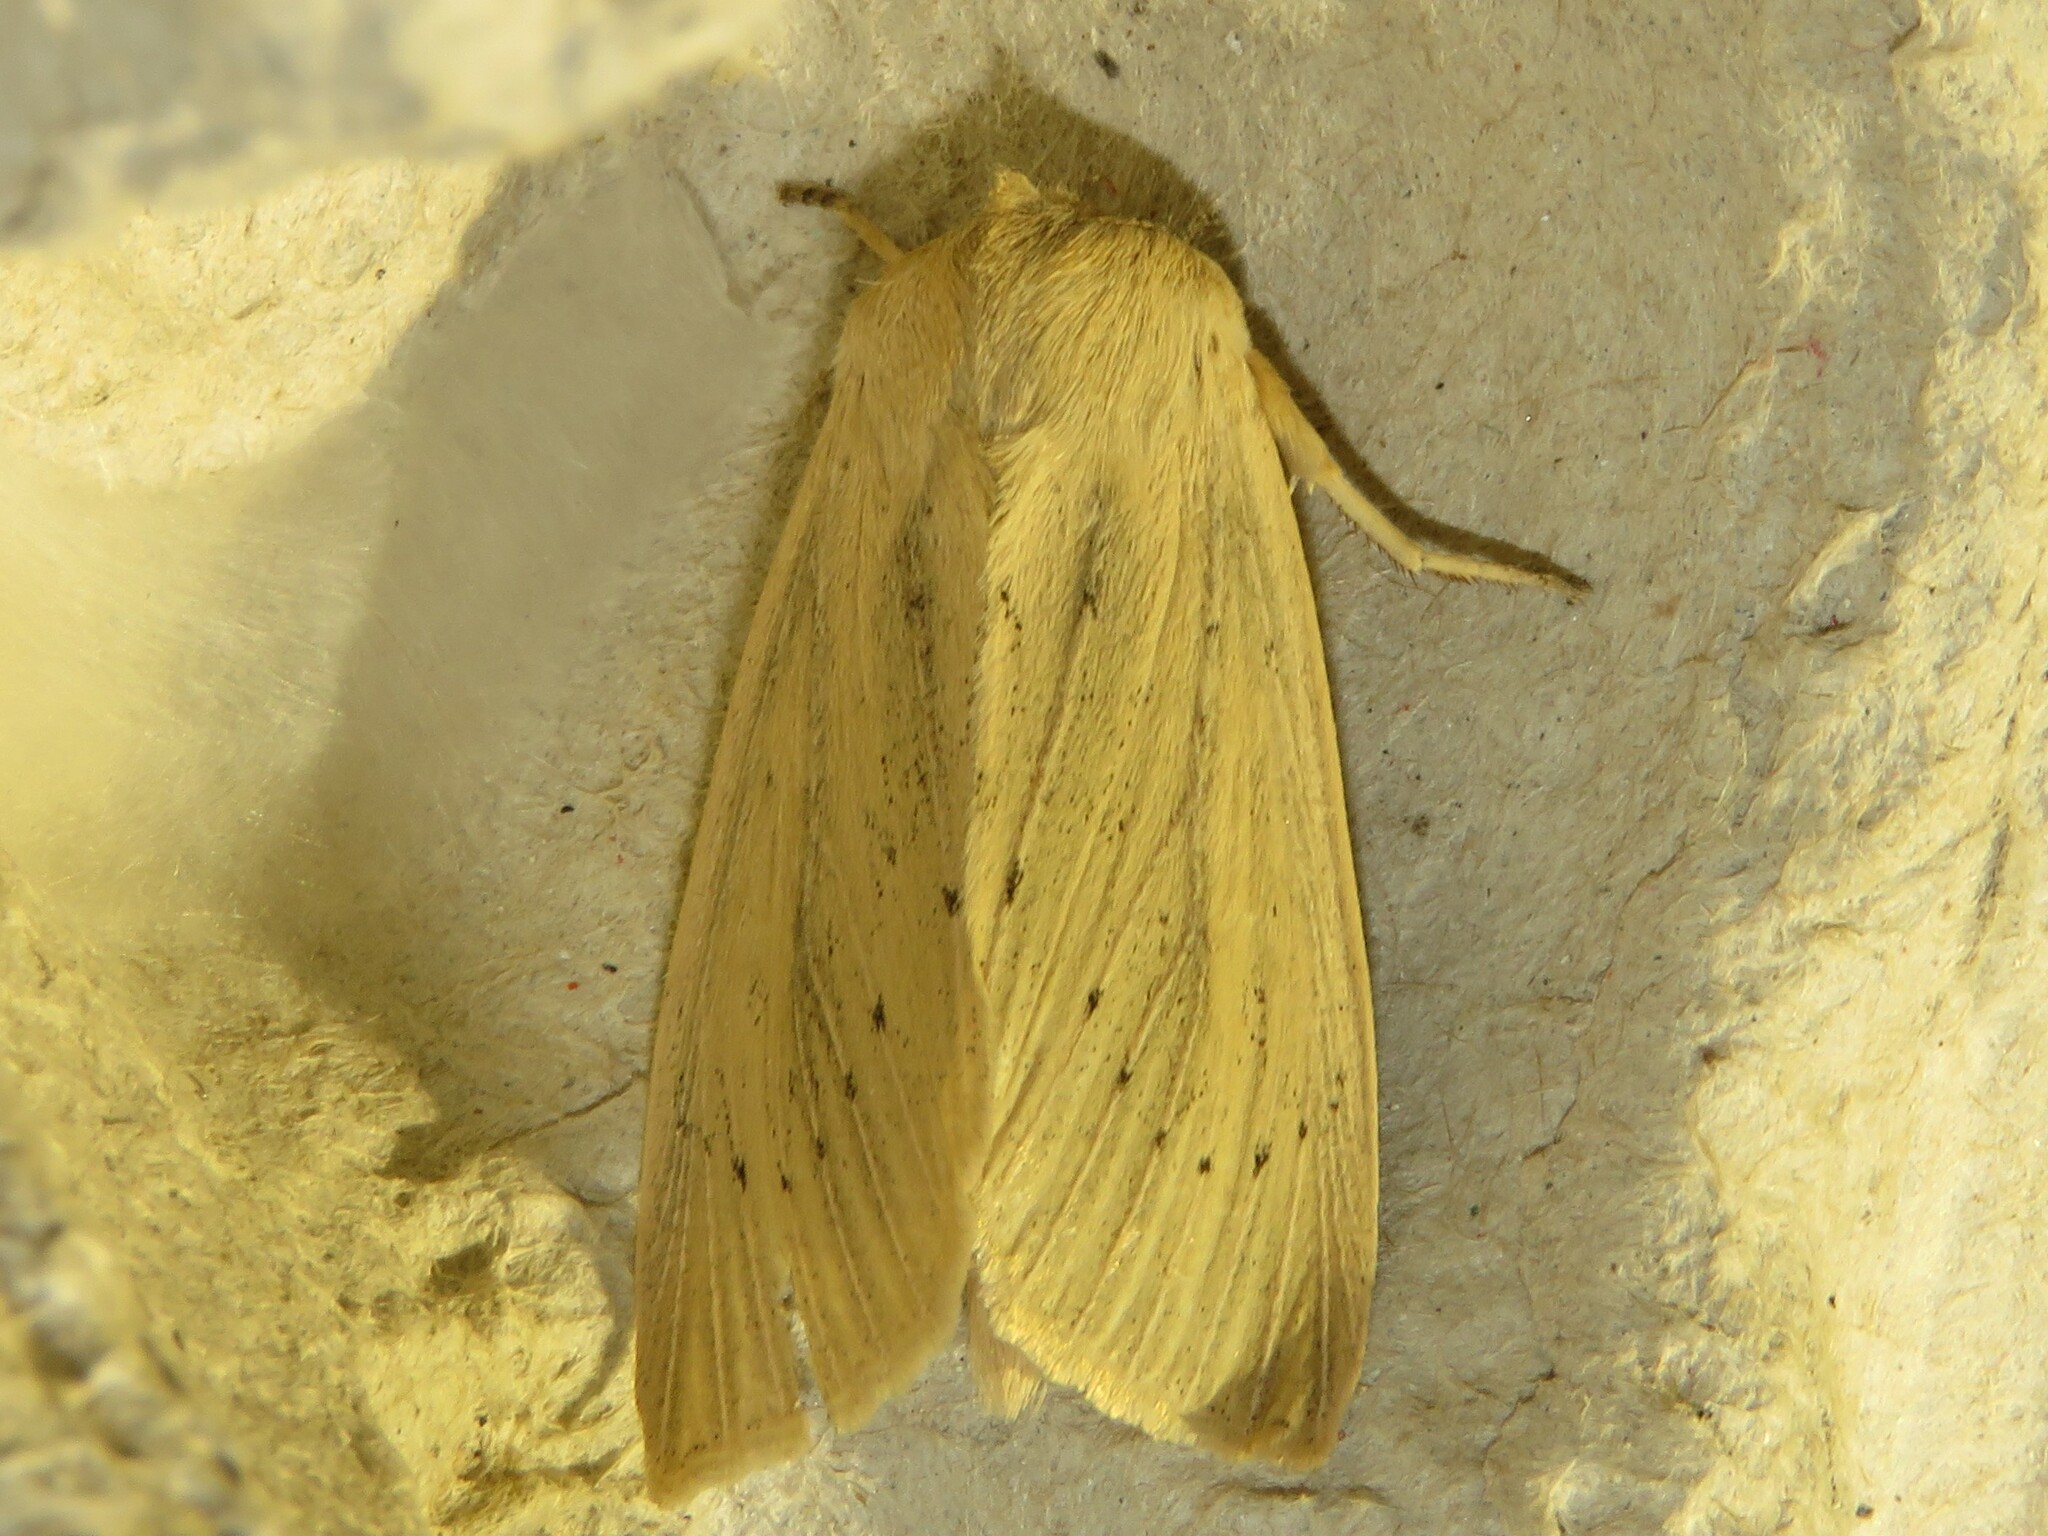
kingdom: Animalia
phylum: Arthropoda
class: Insecta
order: Lepidoptera
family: Noctuidae
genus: Rhizedra
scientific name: Rhizedra lutosa
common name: Large wainscot
